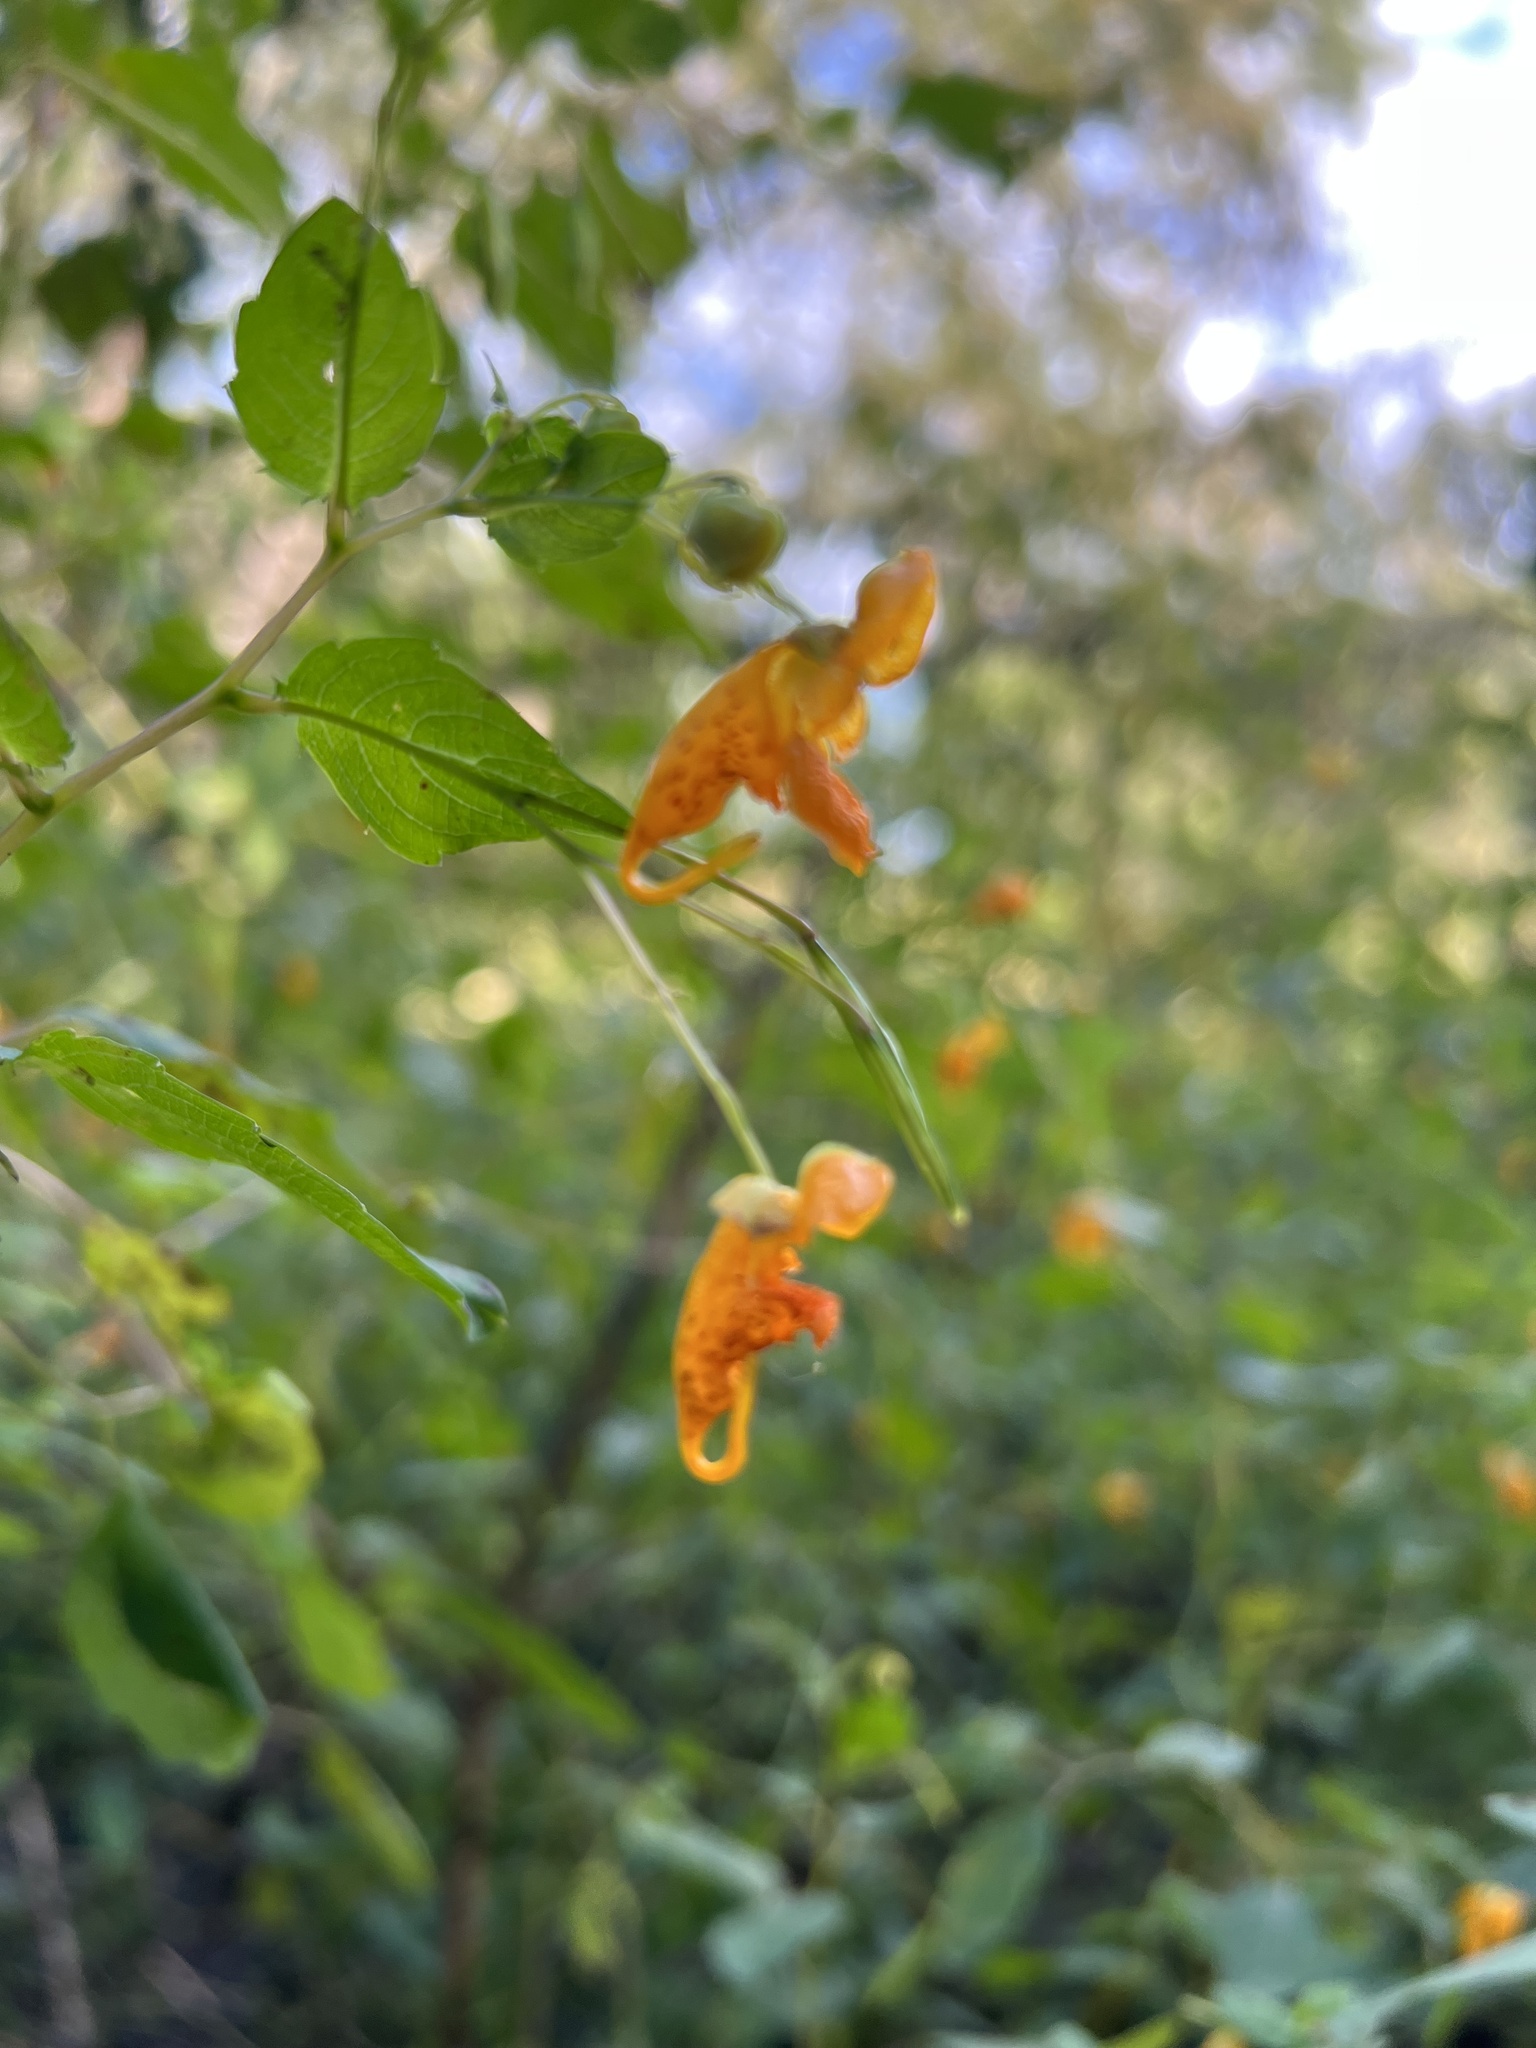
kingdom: Plantae
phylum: Tracheophyta
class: Magnoliopsida
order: Ericales
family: Balsaminaceae
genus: Impatiens
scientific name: Impatiens capensis
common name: Orange balsam
